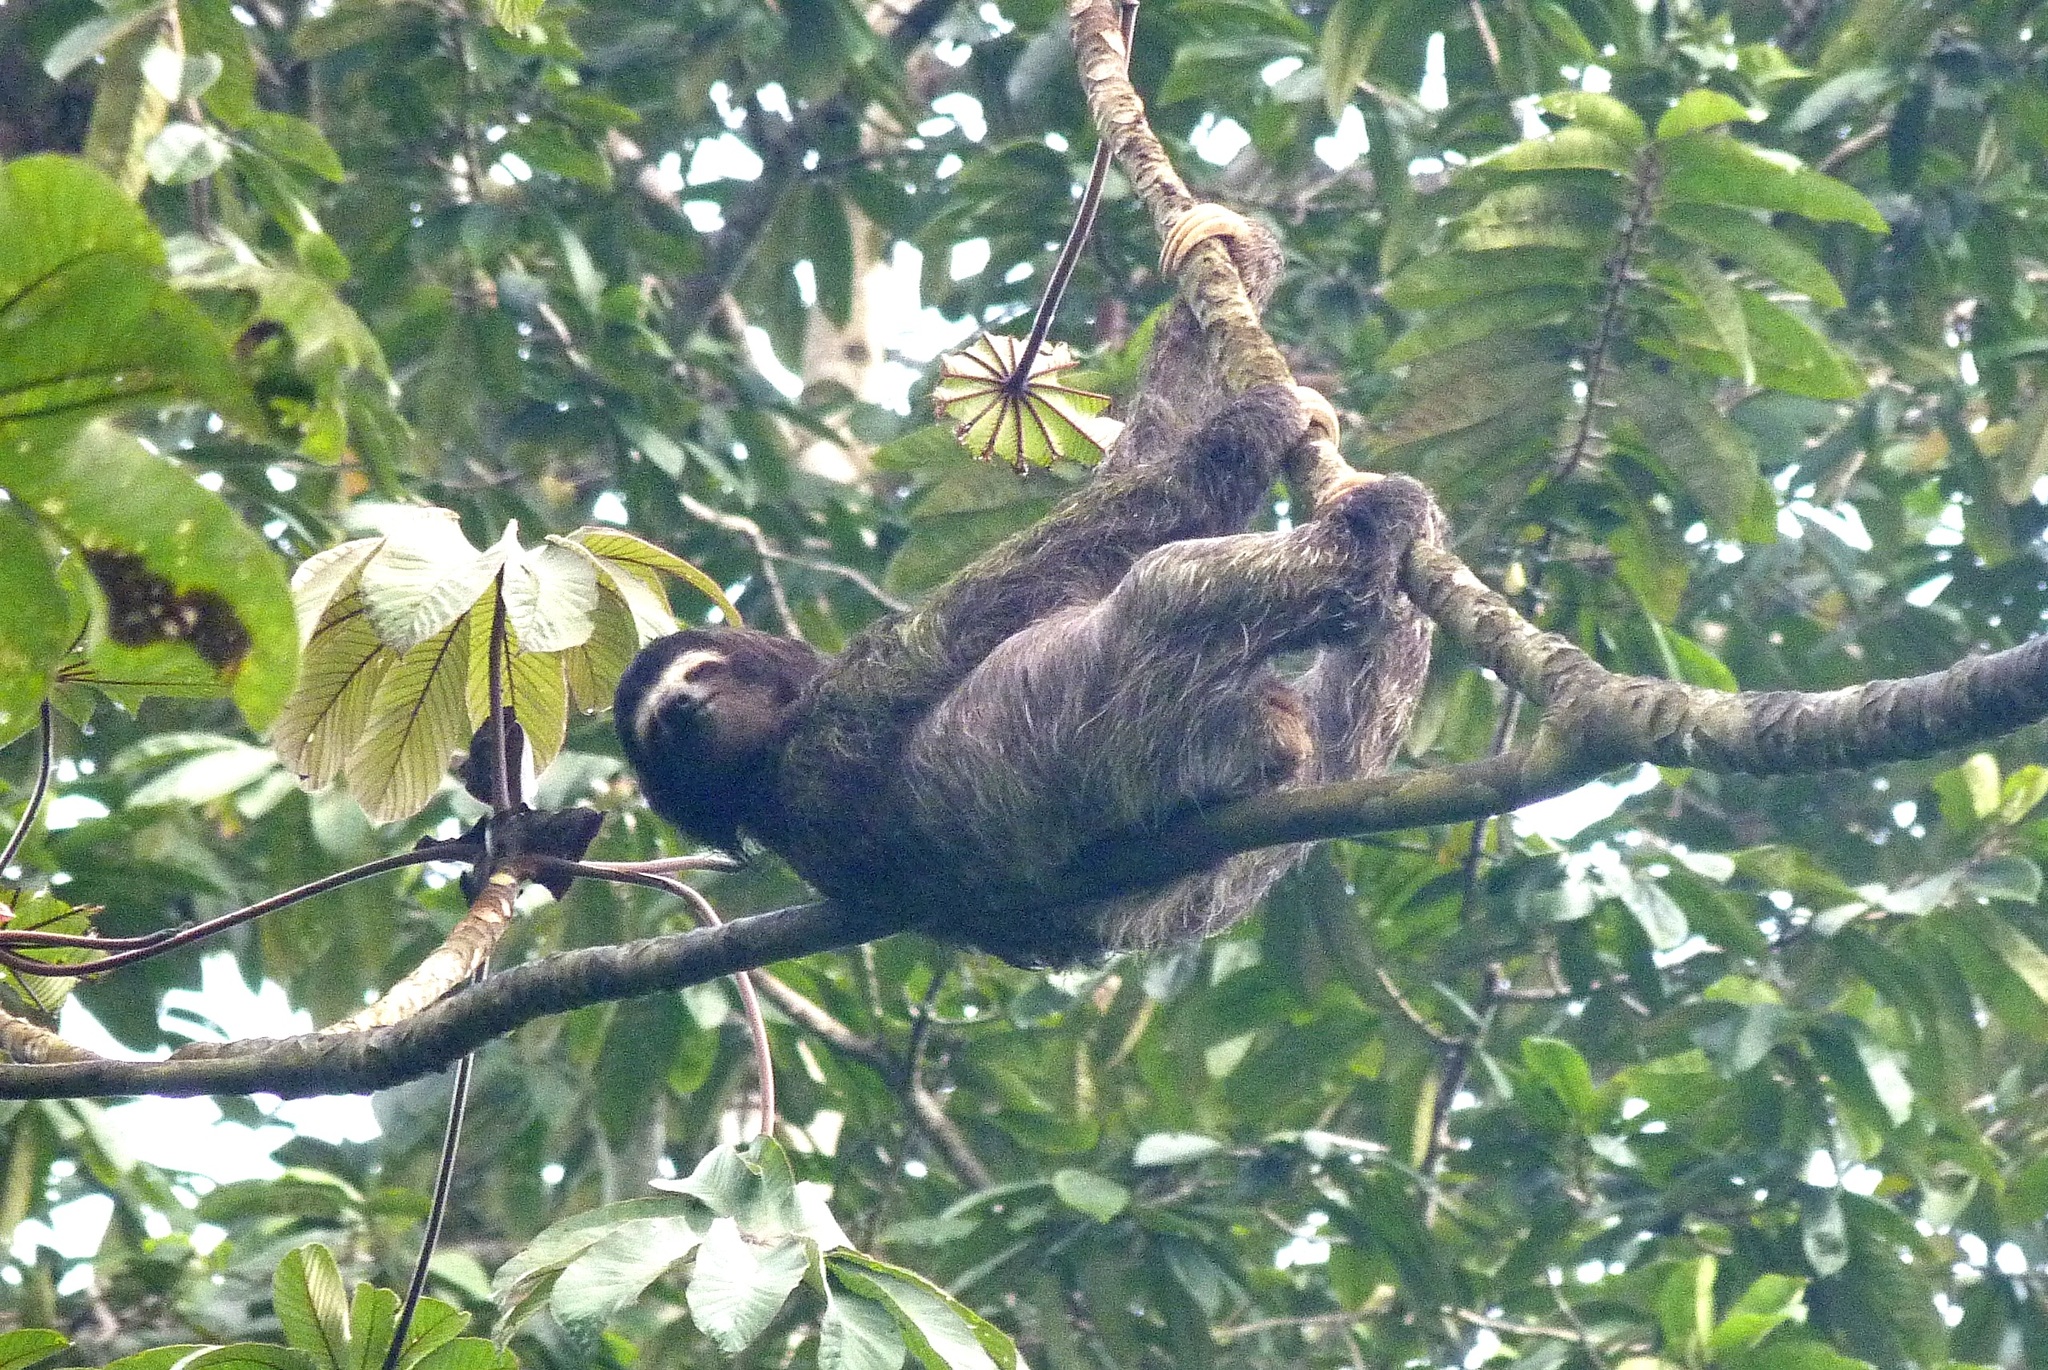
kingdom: Animalia
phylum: Chordata
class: Mammalia
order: Pilosa
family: Bradypodidae
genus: Bradypus
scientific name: Bradypus variegatus
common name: Brown-throated three-toed sloth
